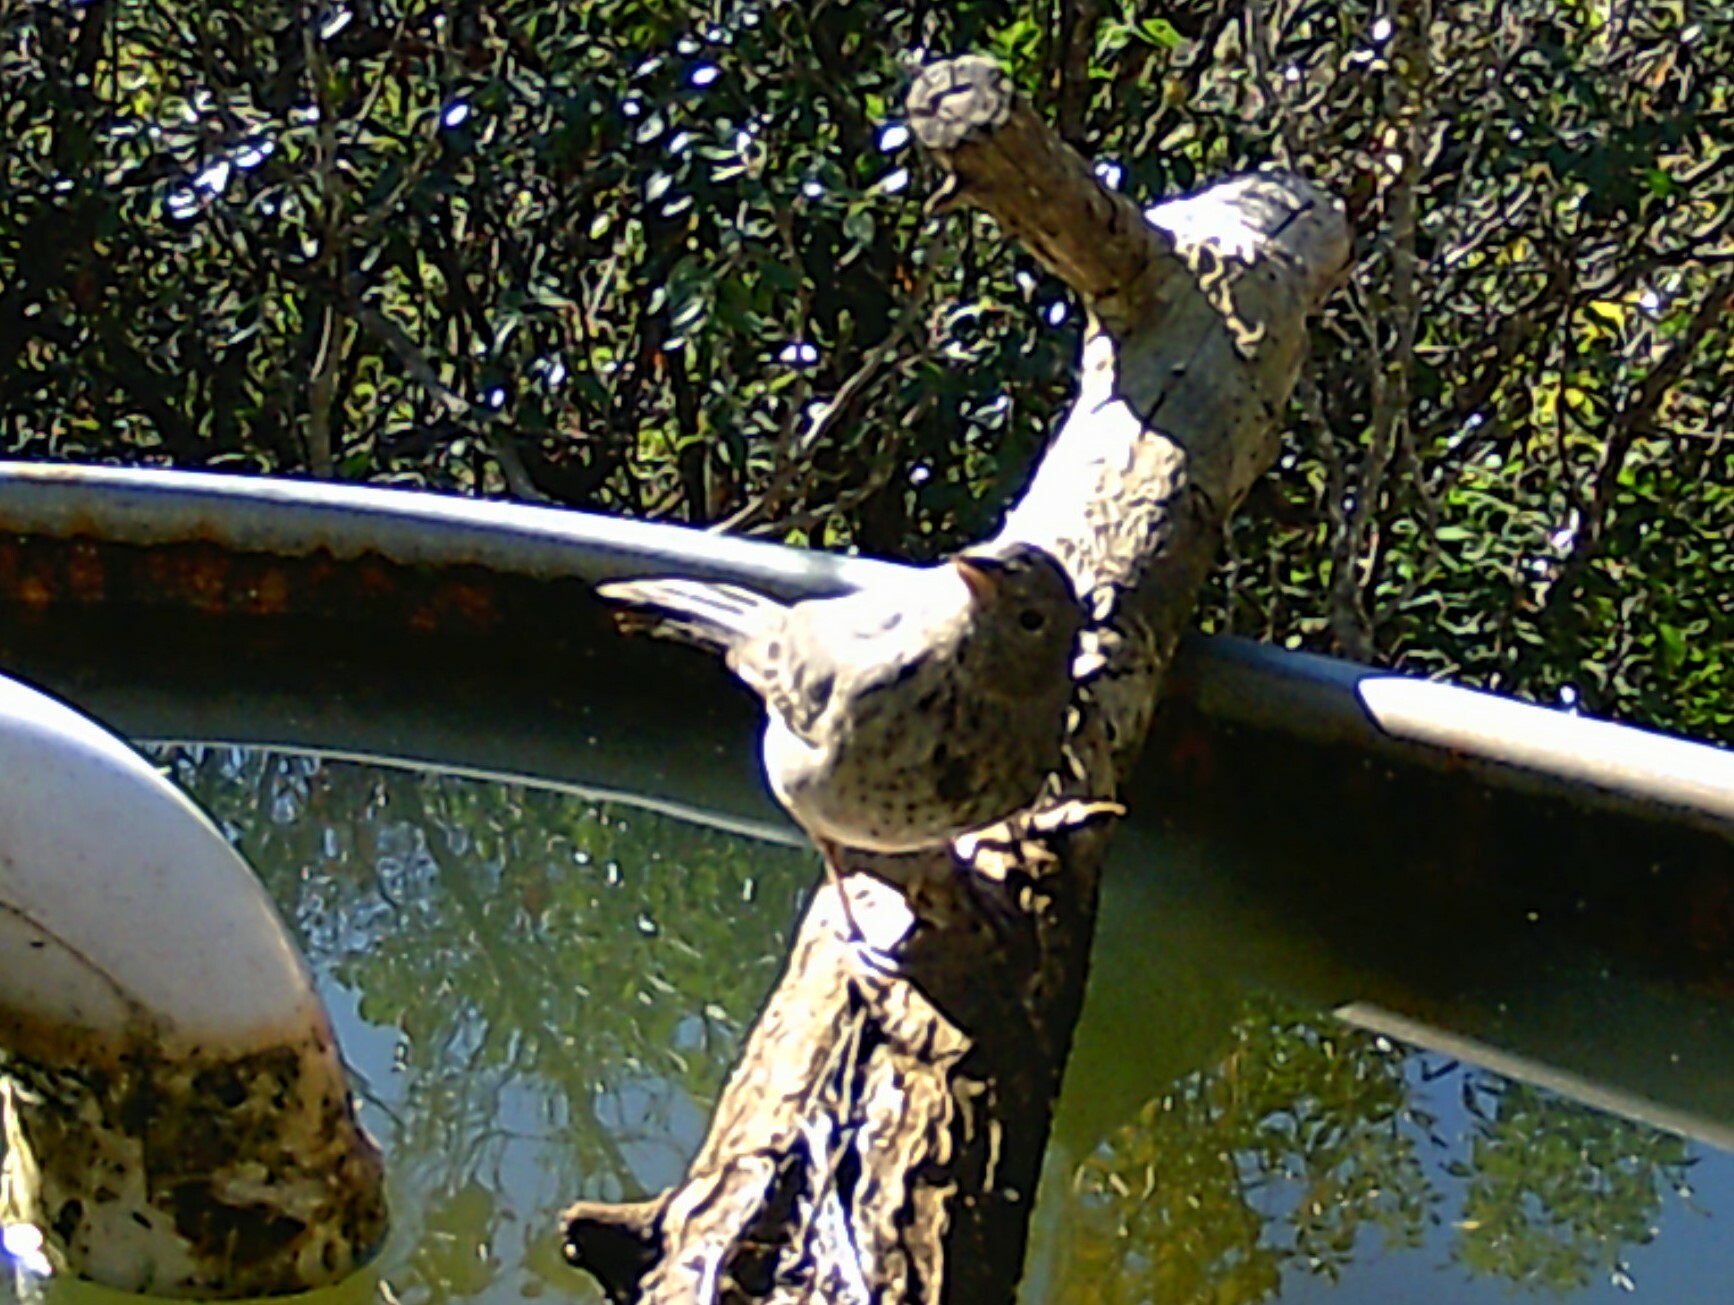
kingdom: Animalia
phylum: Chordata
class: Aves
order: Passeriformes
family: Passerellidae
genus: Melozone
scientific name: Melozone fusca
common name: Canyon towhee
